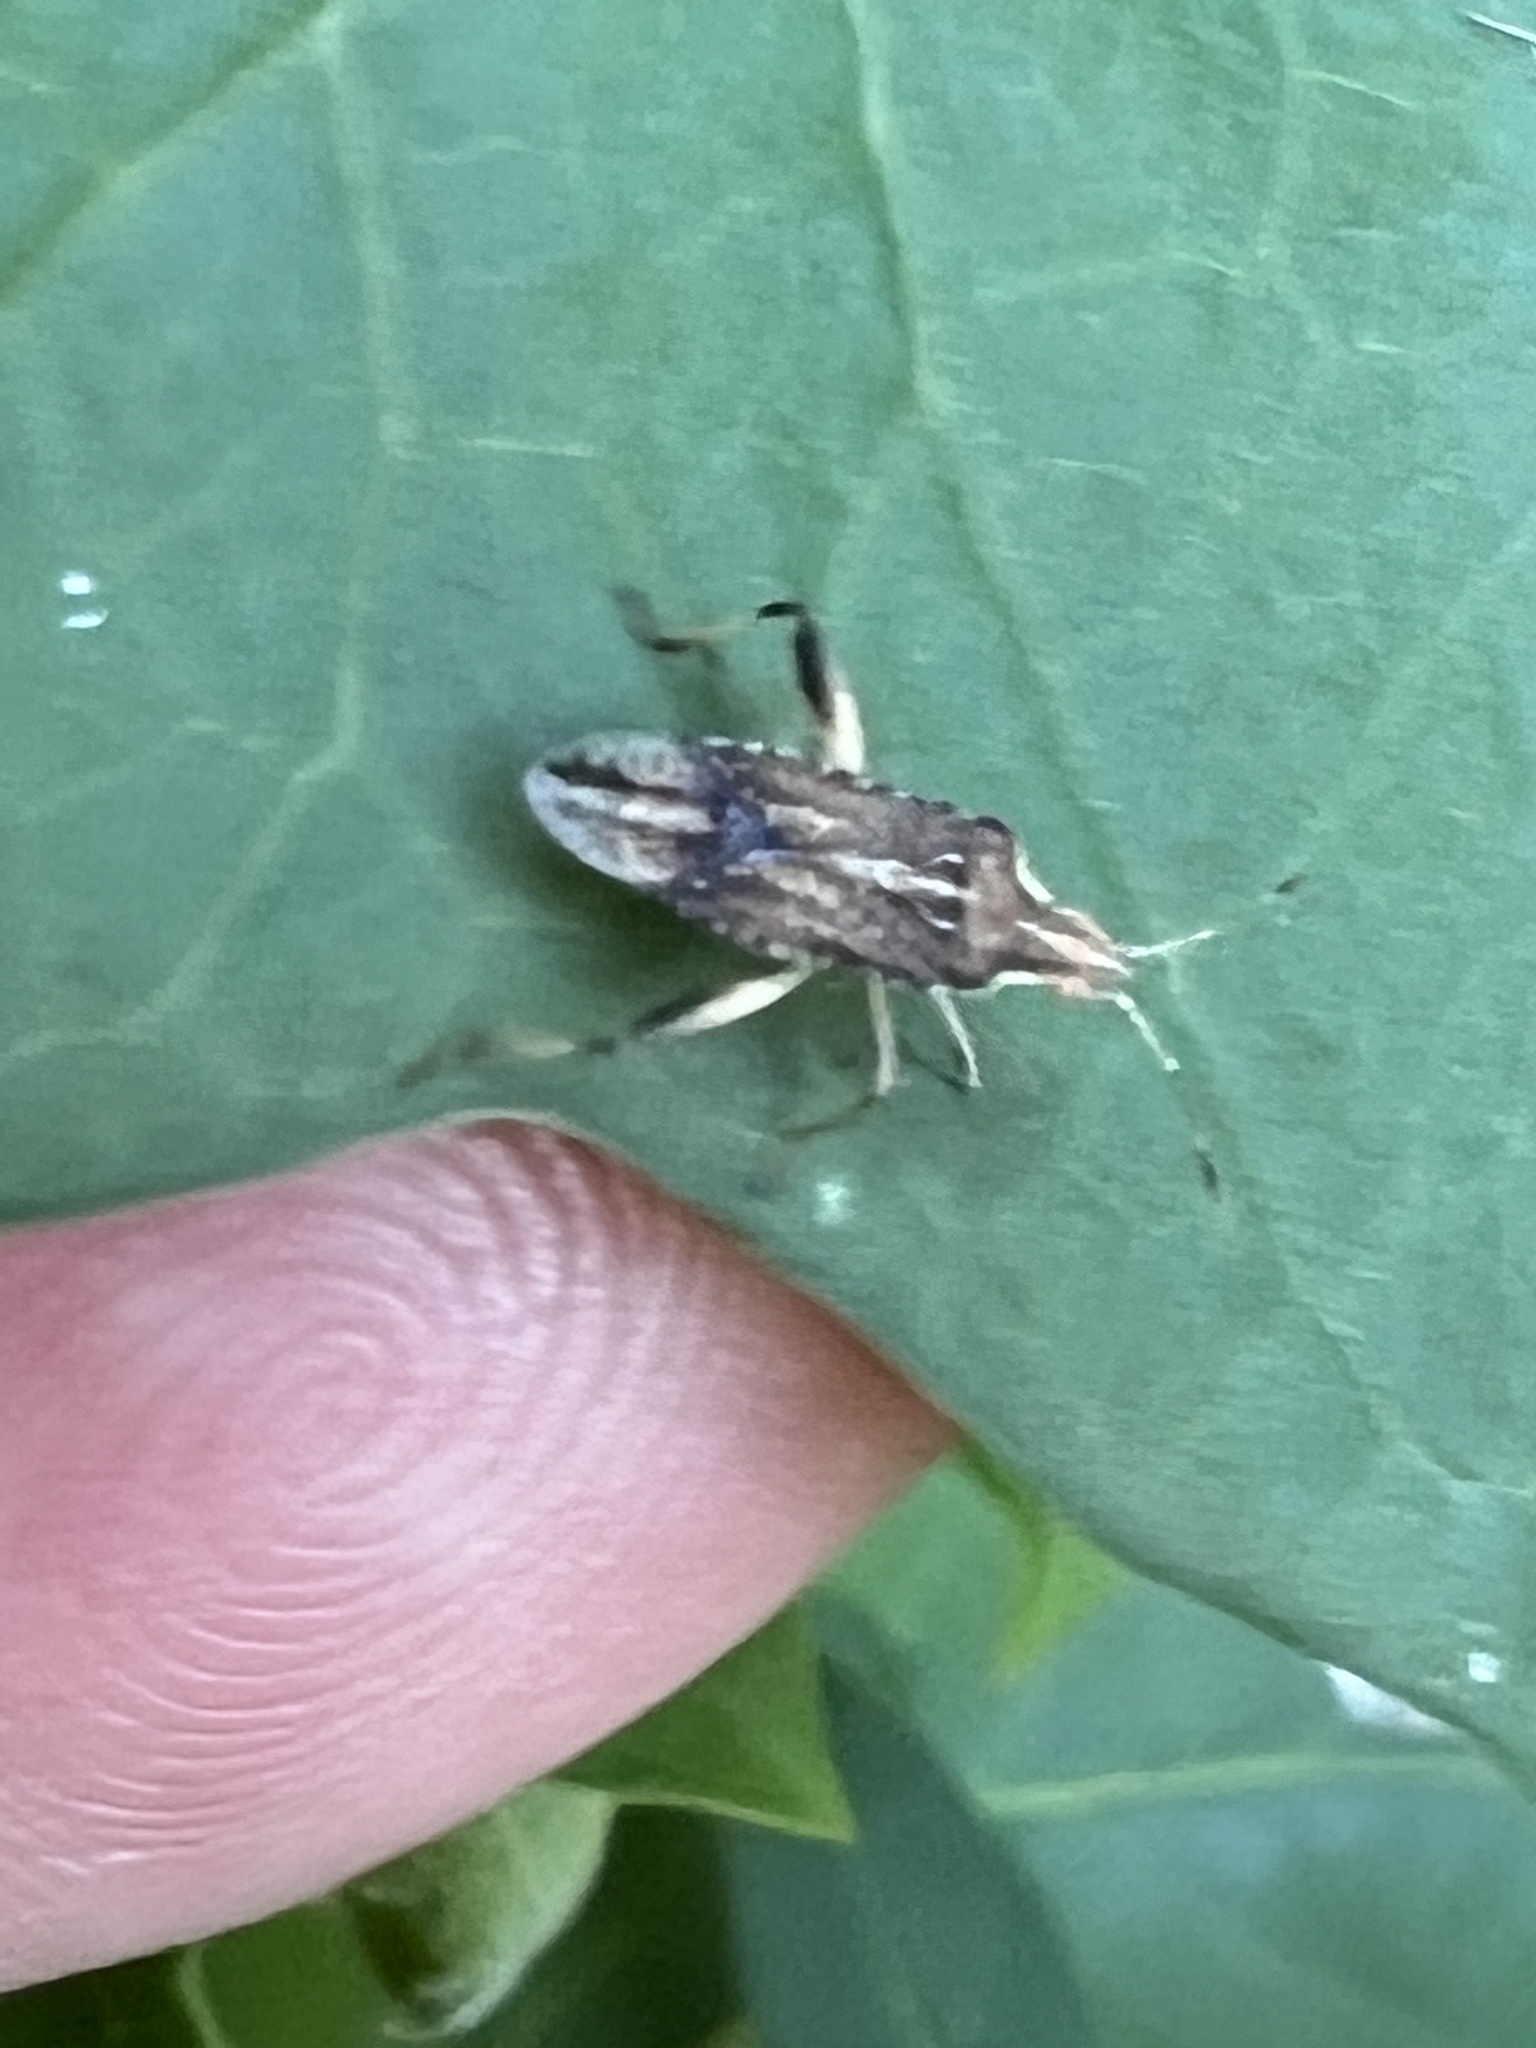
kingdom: Animalia
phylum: Arthropoda
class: Insecta
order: Hemiptera
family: Rhopalidae
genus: Harmostes
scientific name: Harmostes fraterculus
